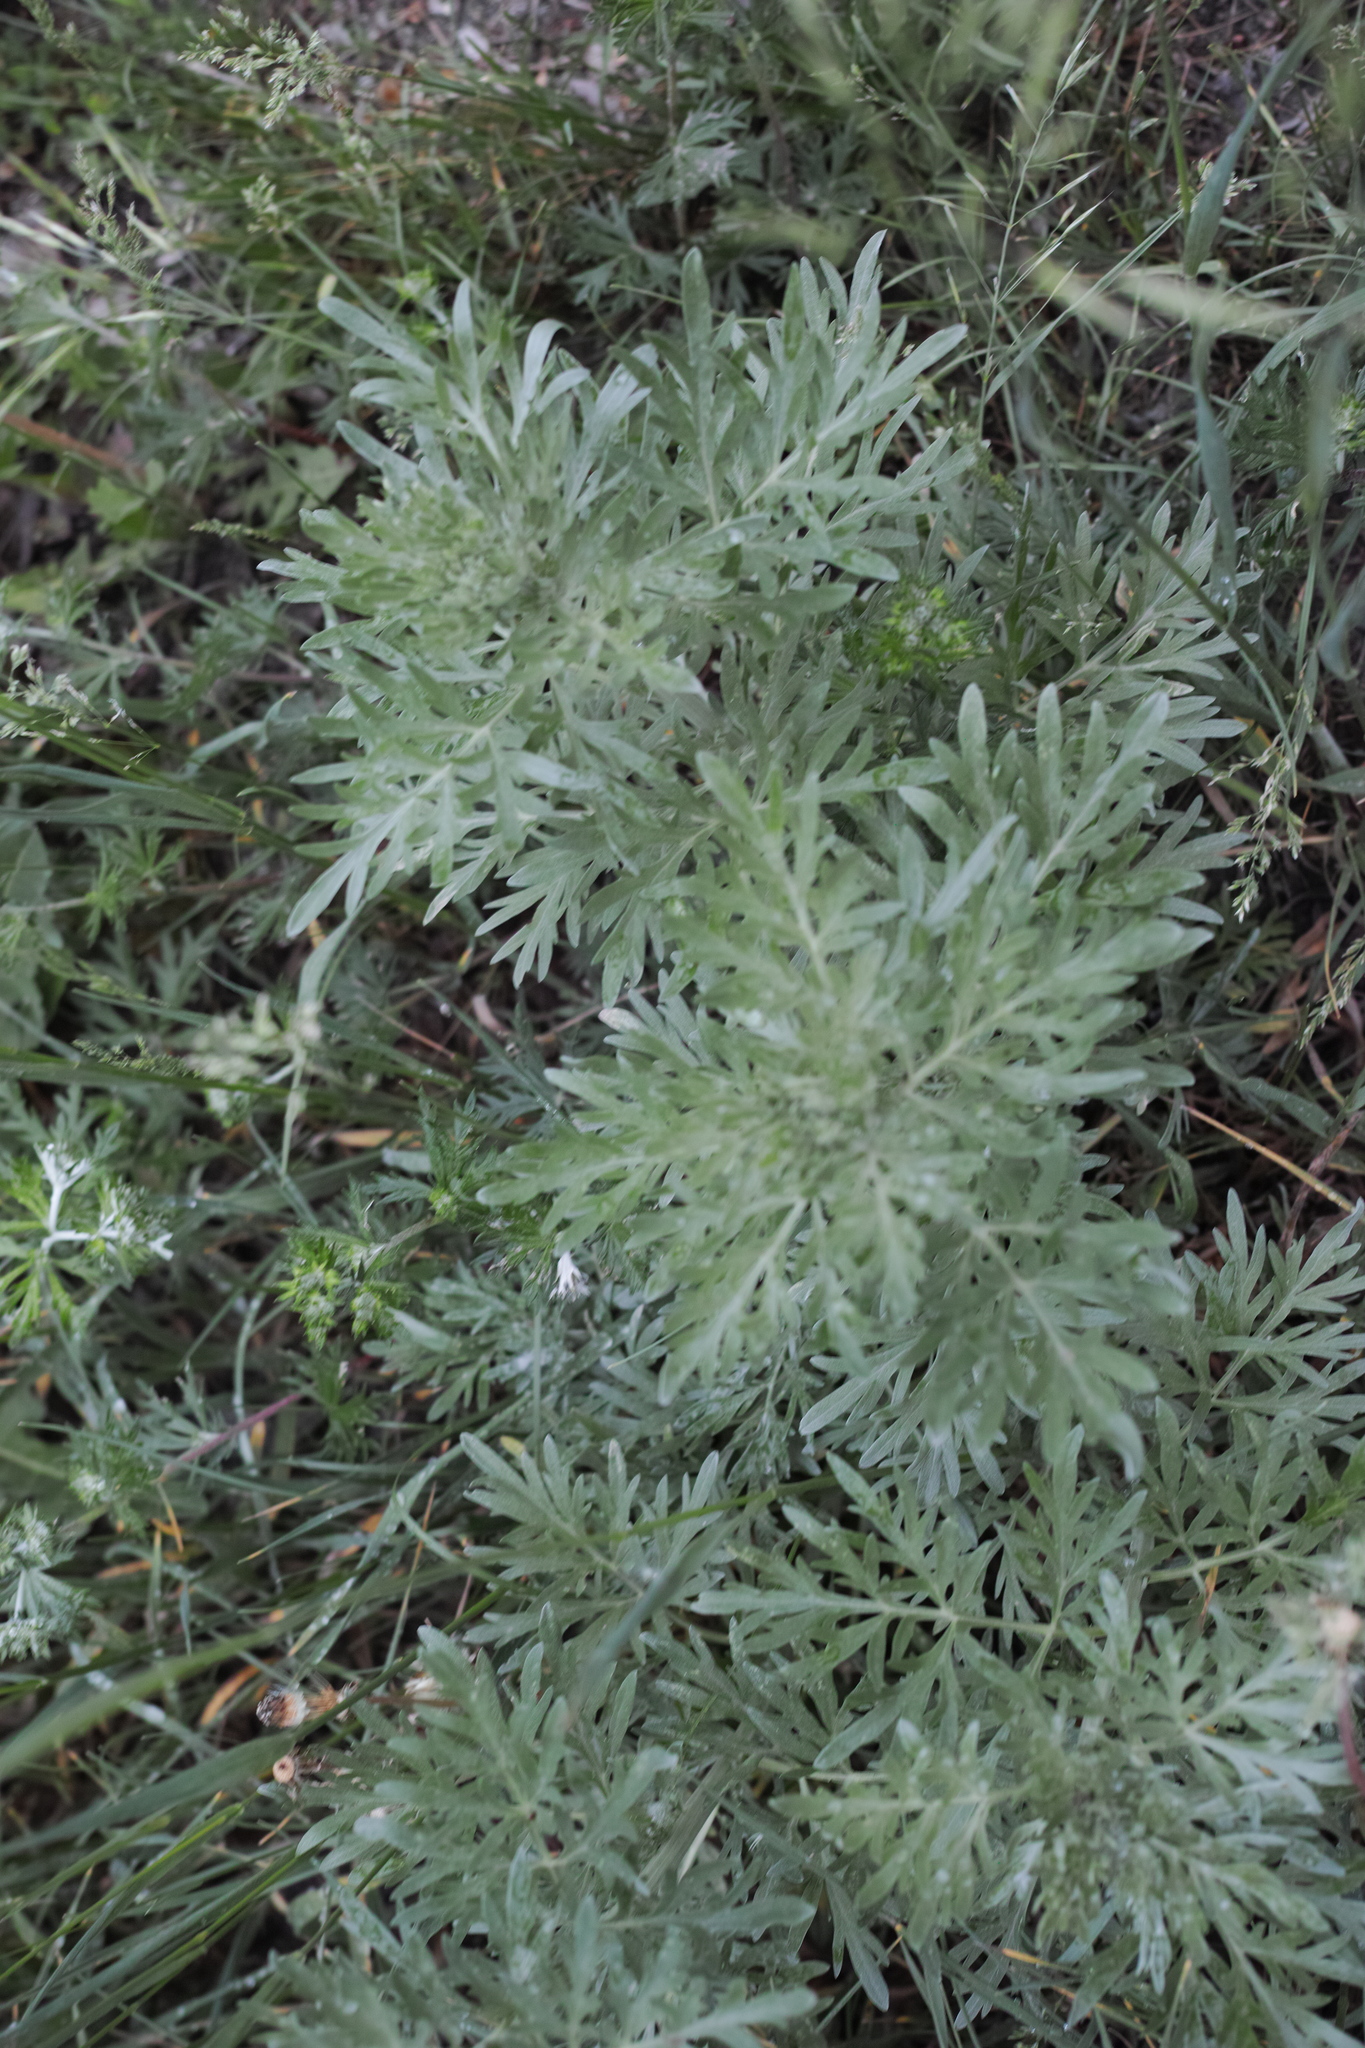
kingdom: Plantae
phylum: Tracheophyta
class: Magnoliopsida
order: Asterales
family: Asteraceae
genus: Artemisia
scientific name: Artemisia absinthium
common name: Wormwood
